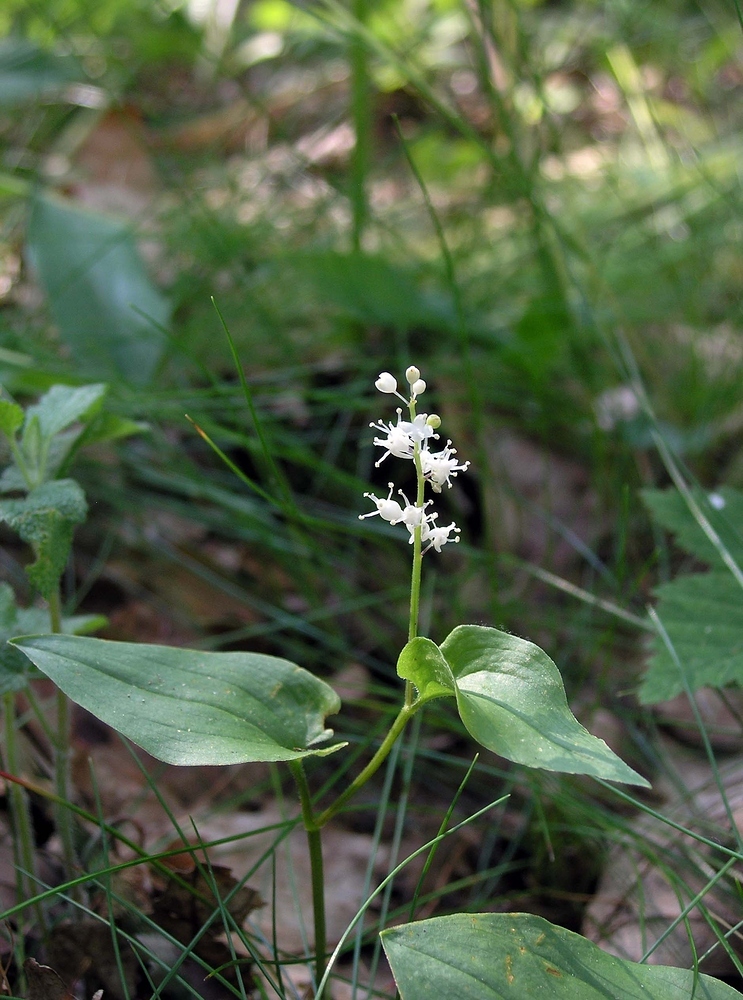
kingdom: Plantae
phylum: Tracheophyta
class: Liliopsida
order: Asparagales
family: Asparagaceae
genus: Maianthemum
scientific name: Maianthemum bifolium
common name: May lily
